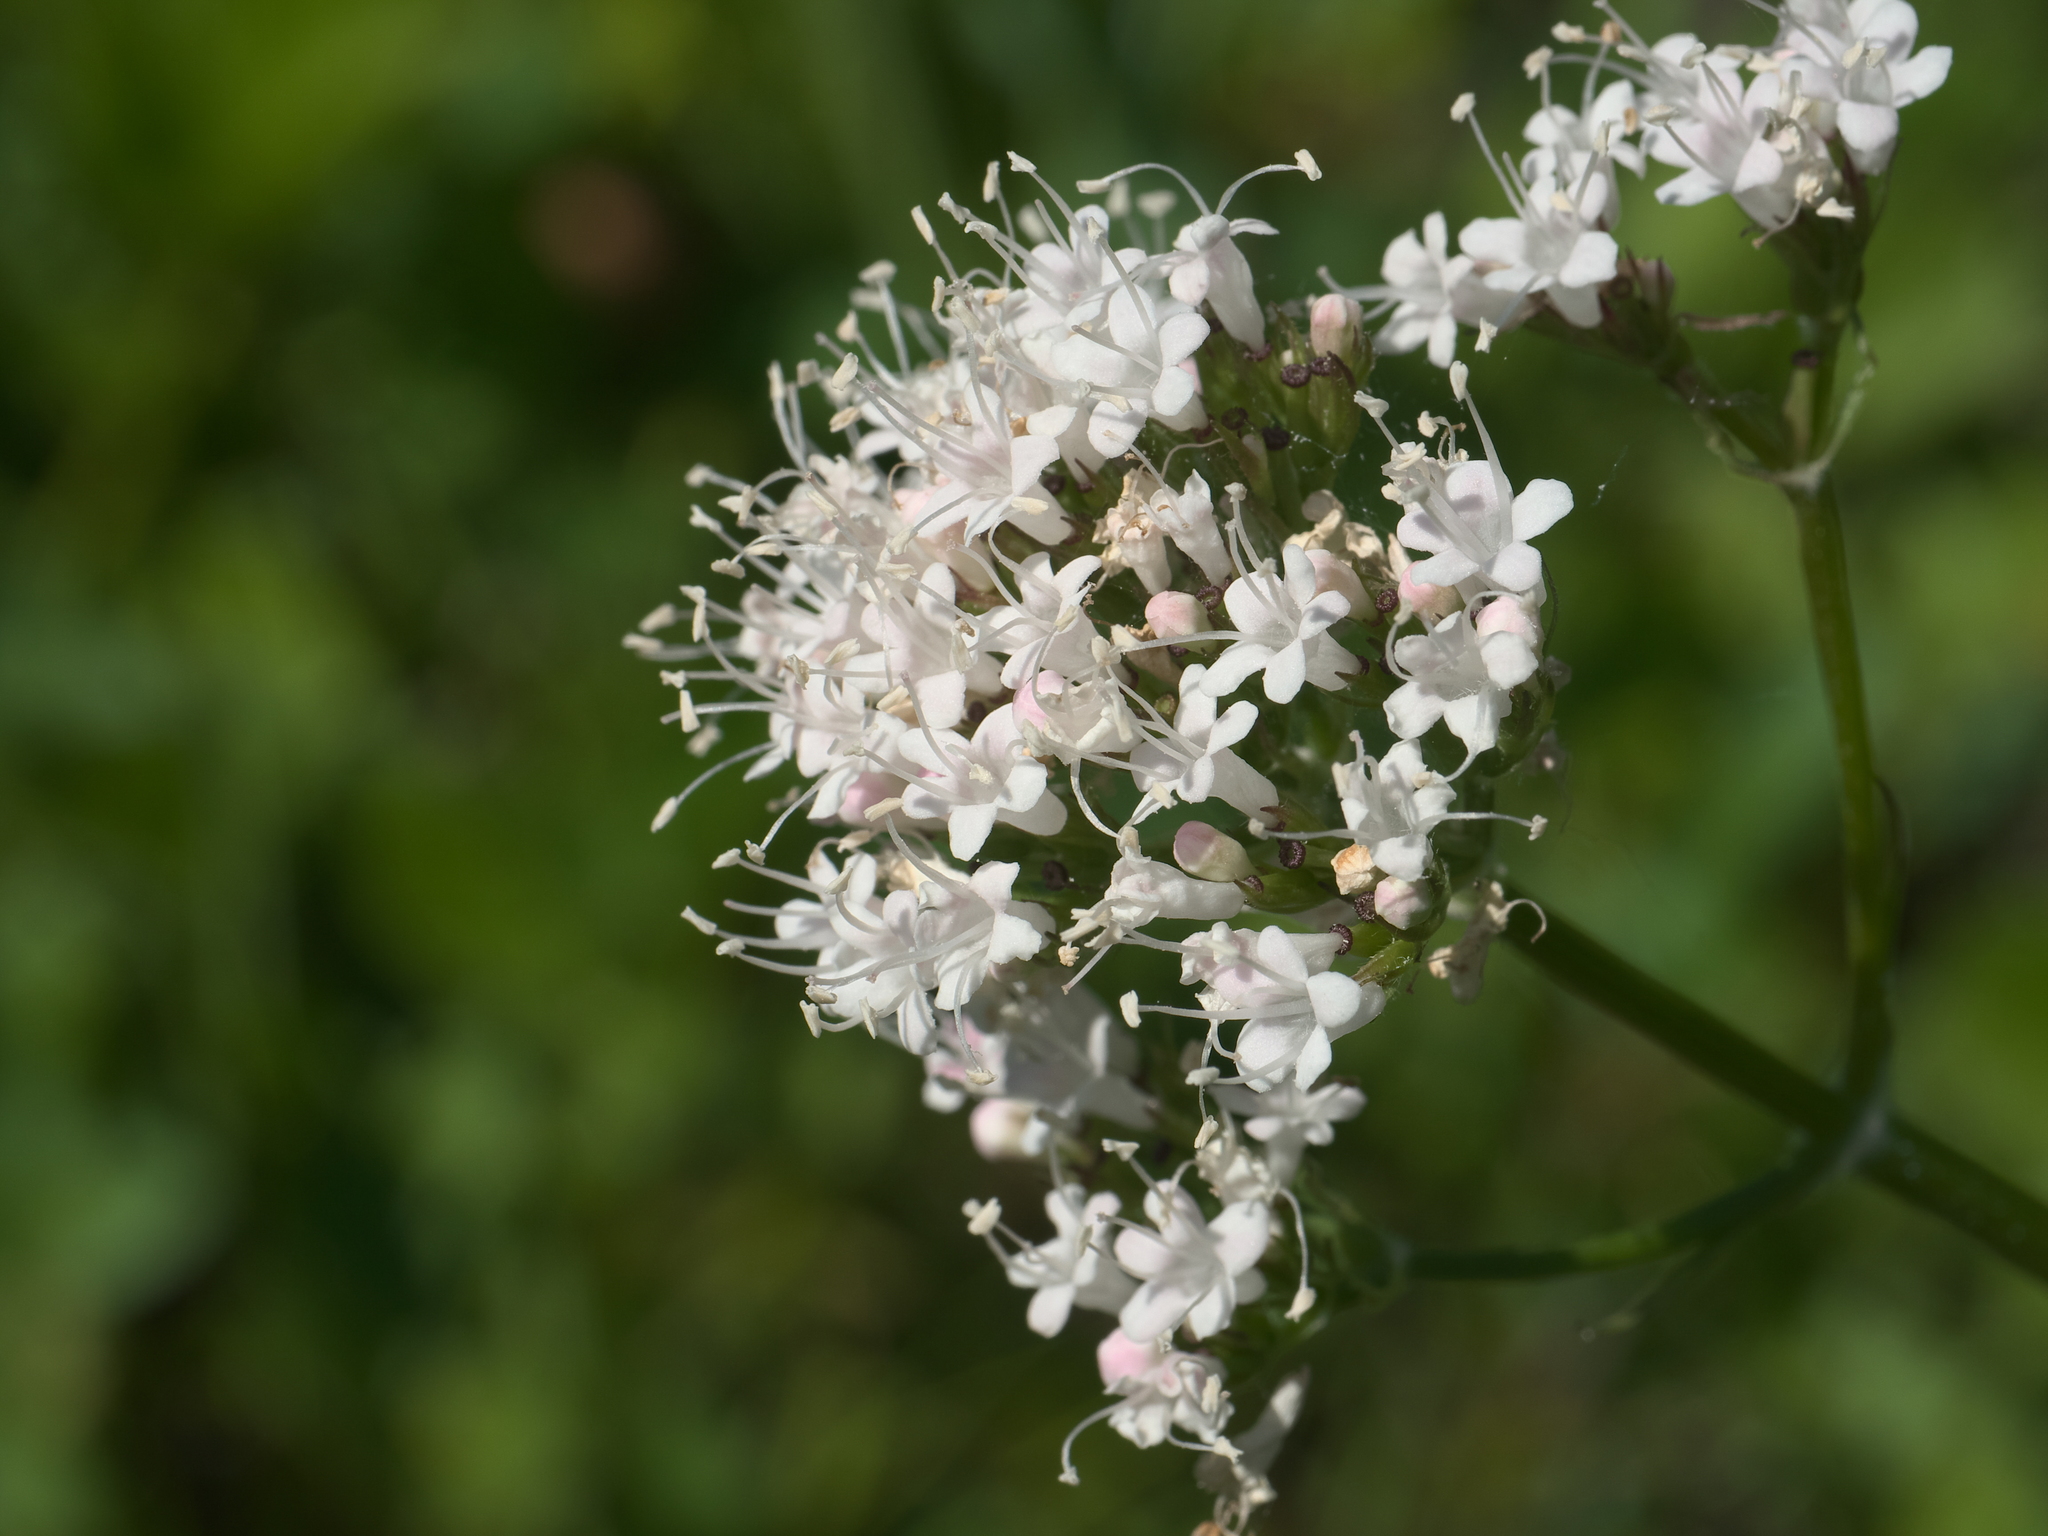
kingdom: Plantae
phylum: Tracheophyta
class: Magnoliopsida
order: Dipsacales
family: Caprifoliaceae
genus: Valeriana
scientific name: Valeriana sitchensis
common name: Pacific valerian
